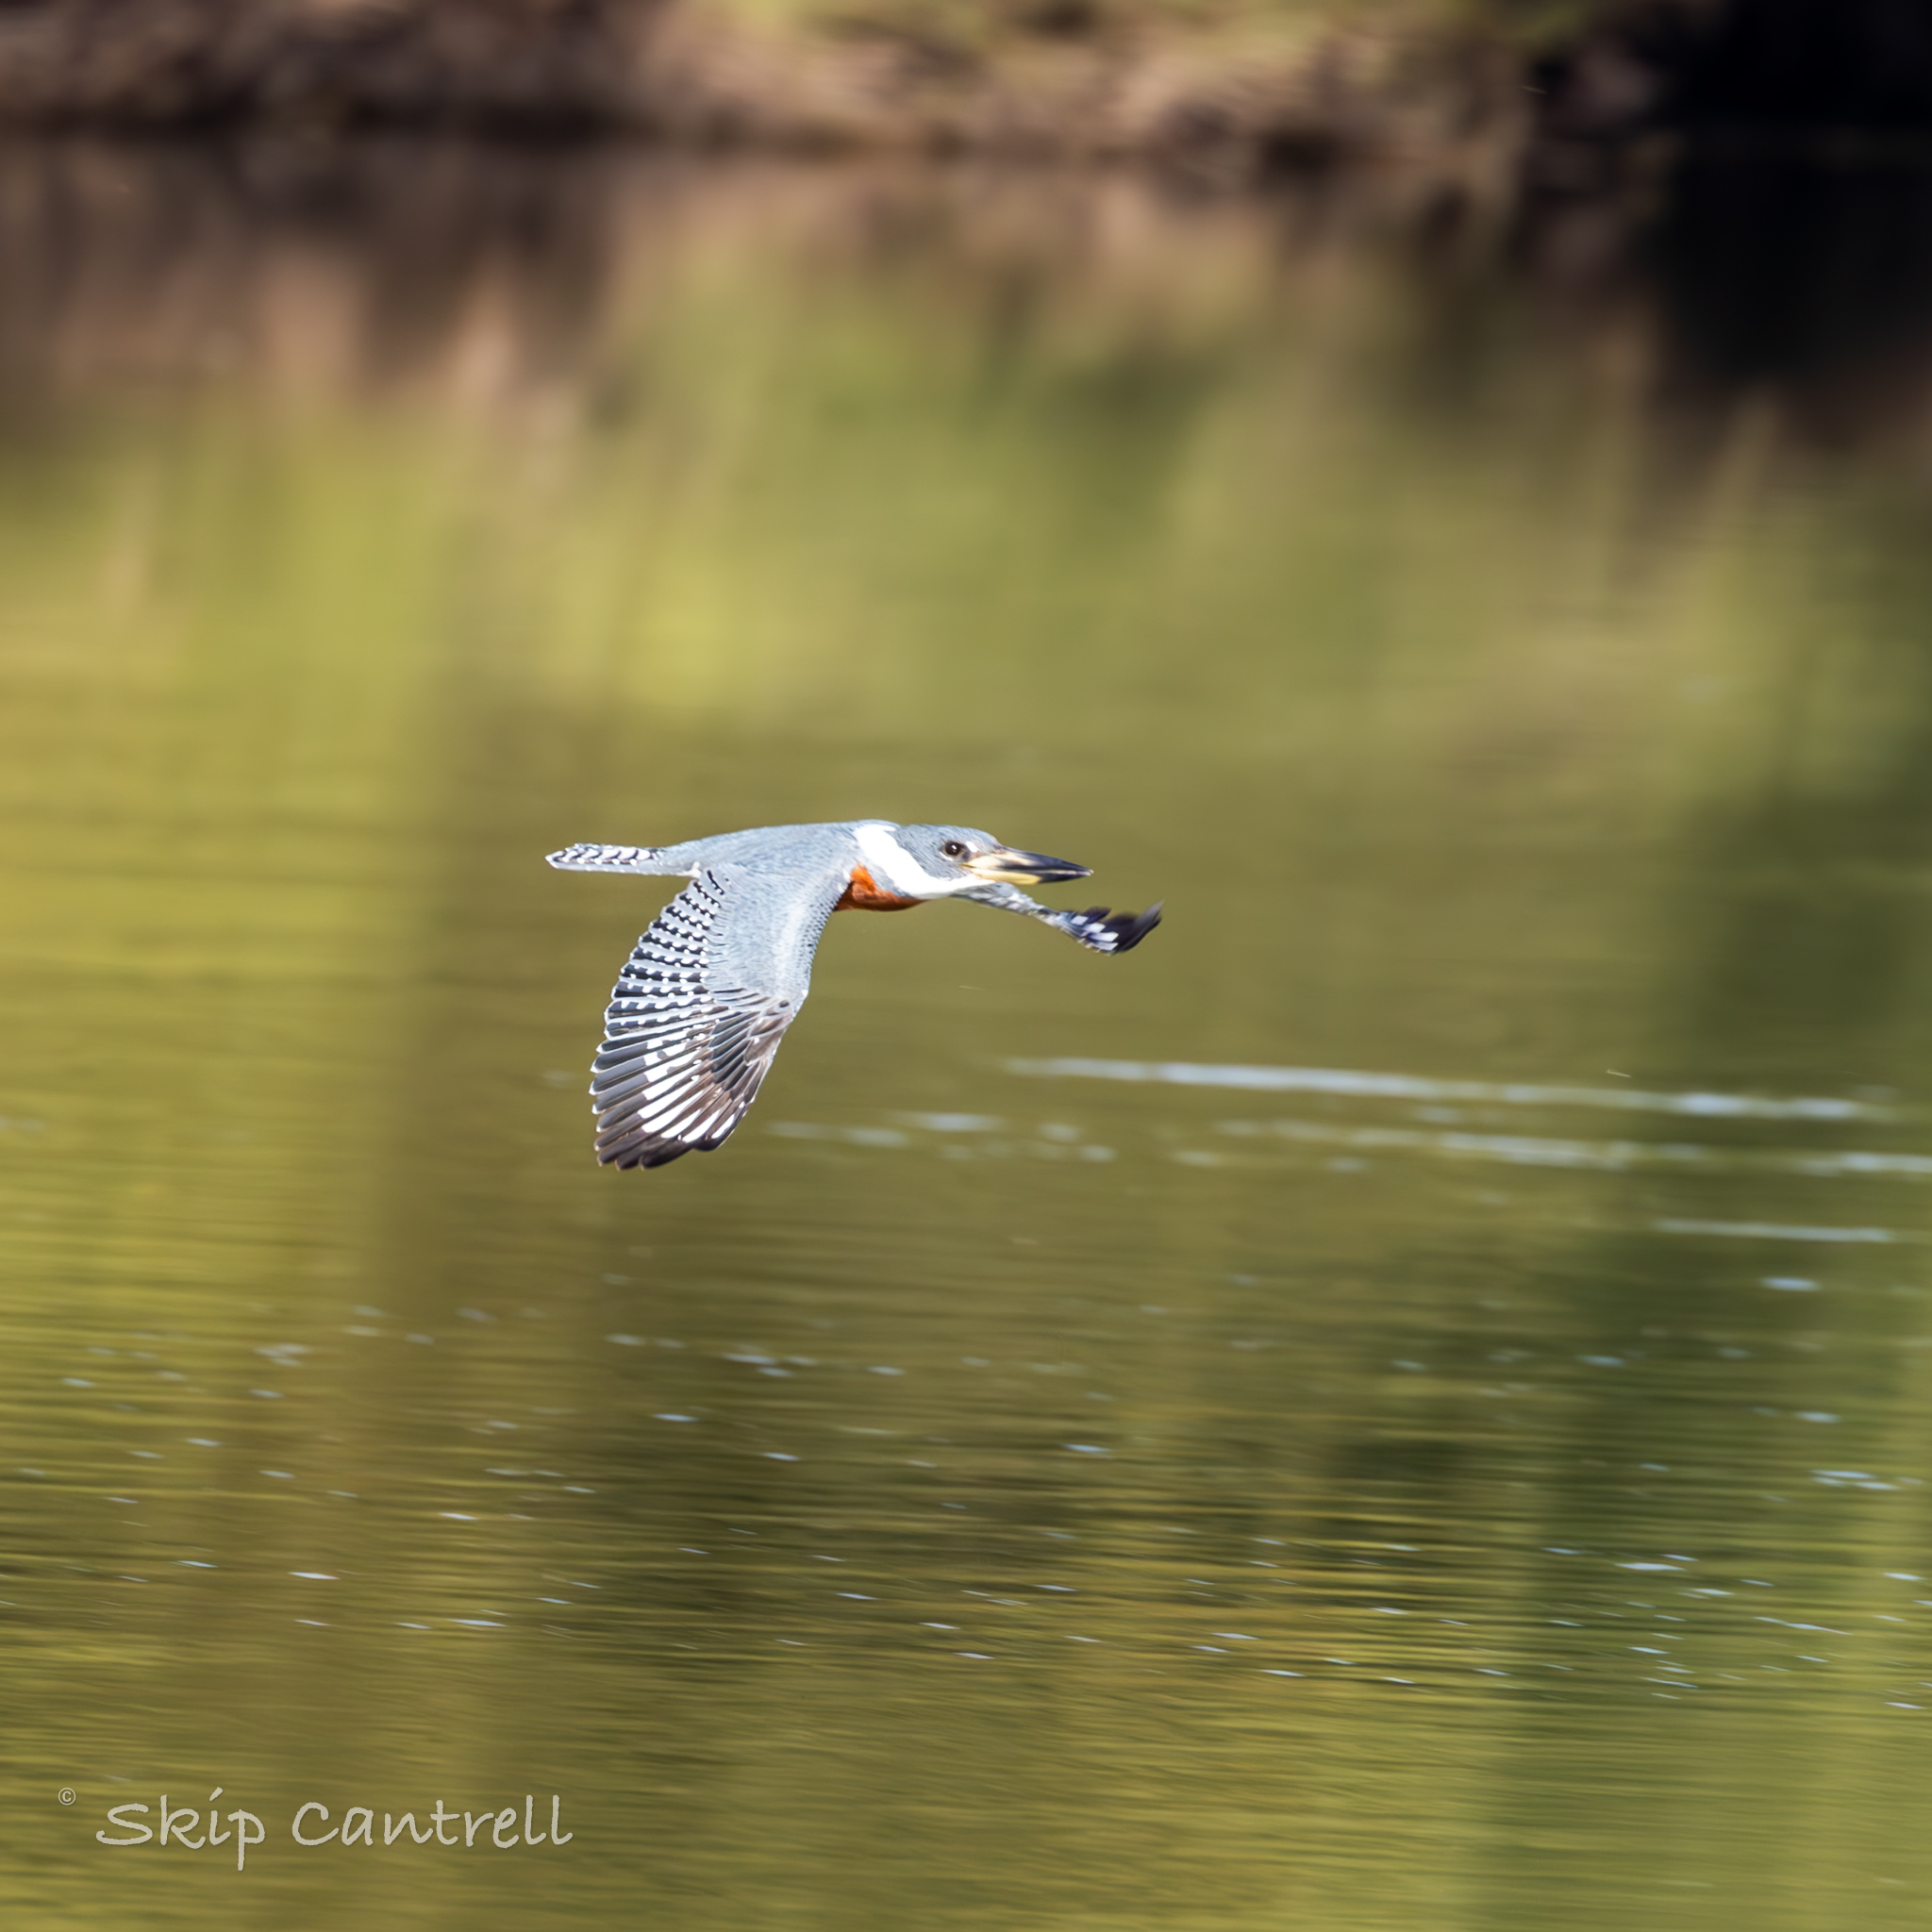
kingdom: Animalia
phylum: Chordata
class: Aves
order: Coraciiformes
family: Alcedinidae
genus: Megaceryle
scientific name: Megaceryle torquata
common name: Ringed kingfisher
